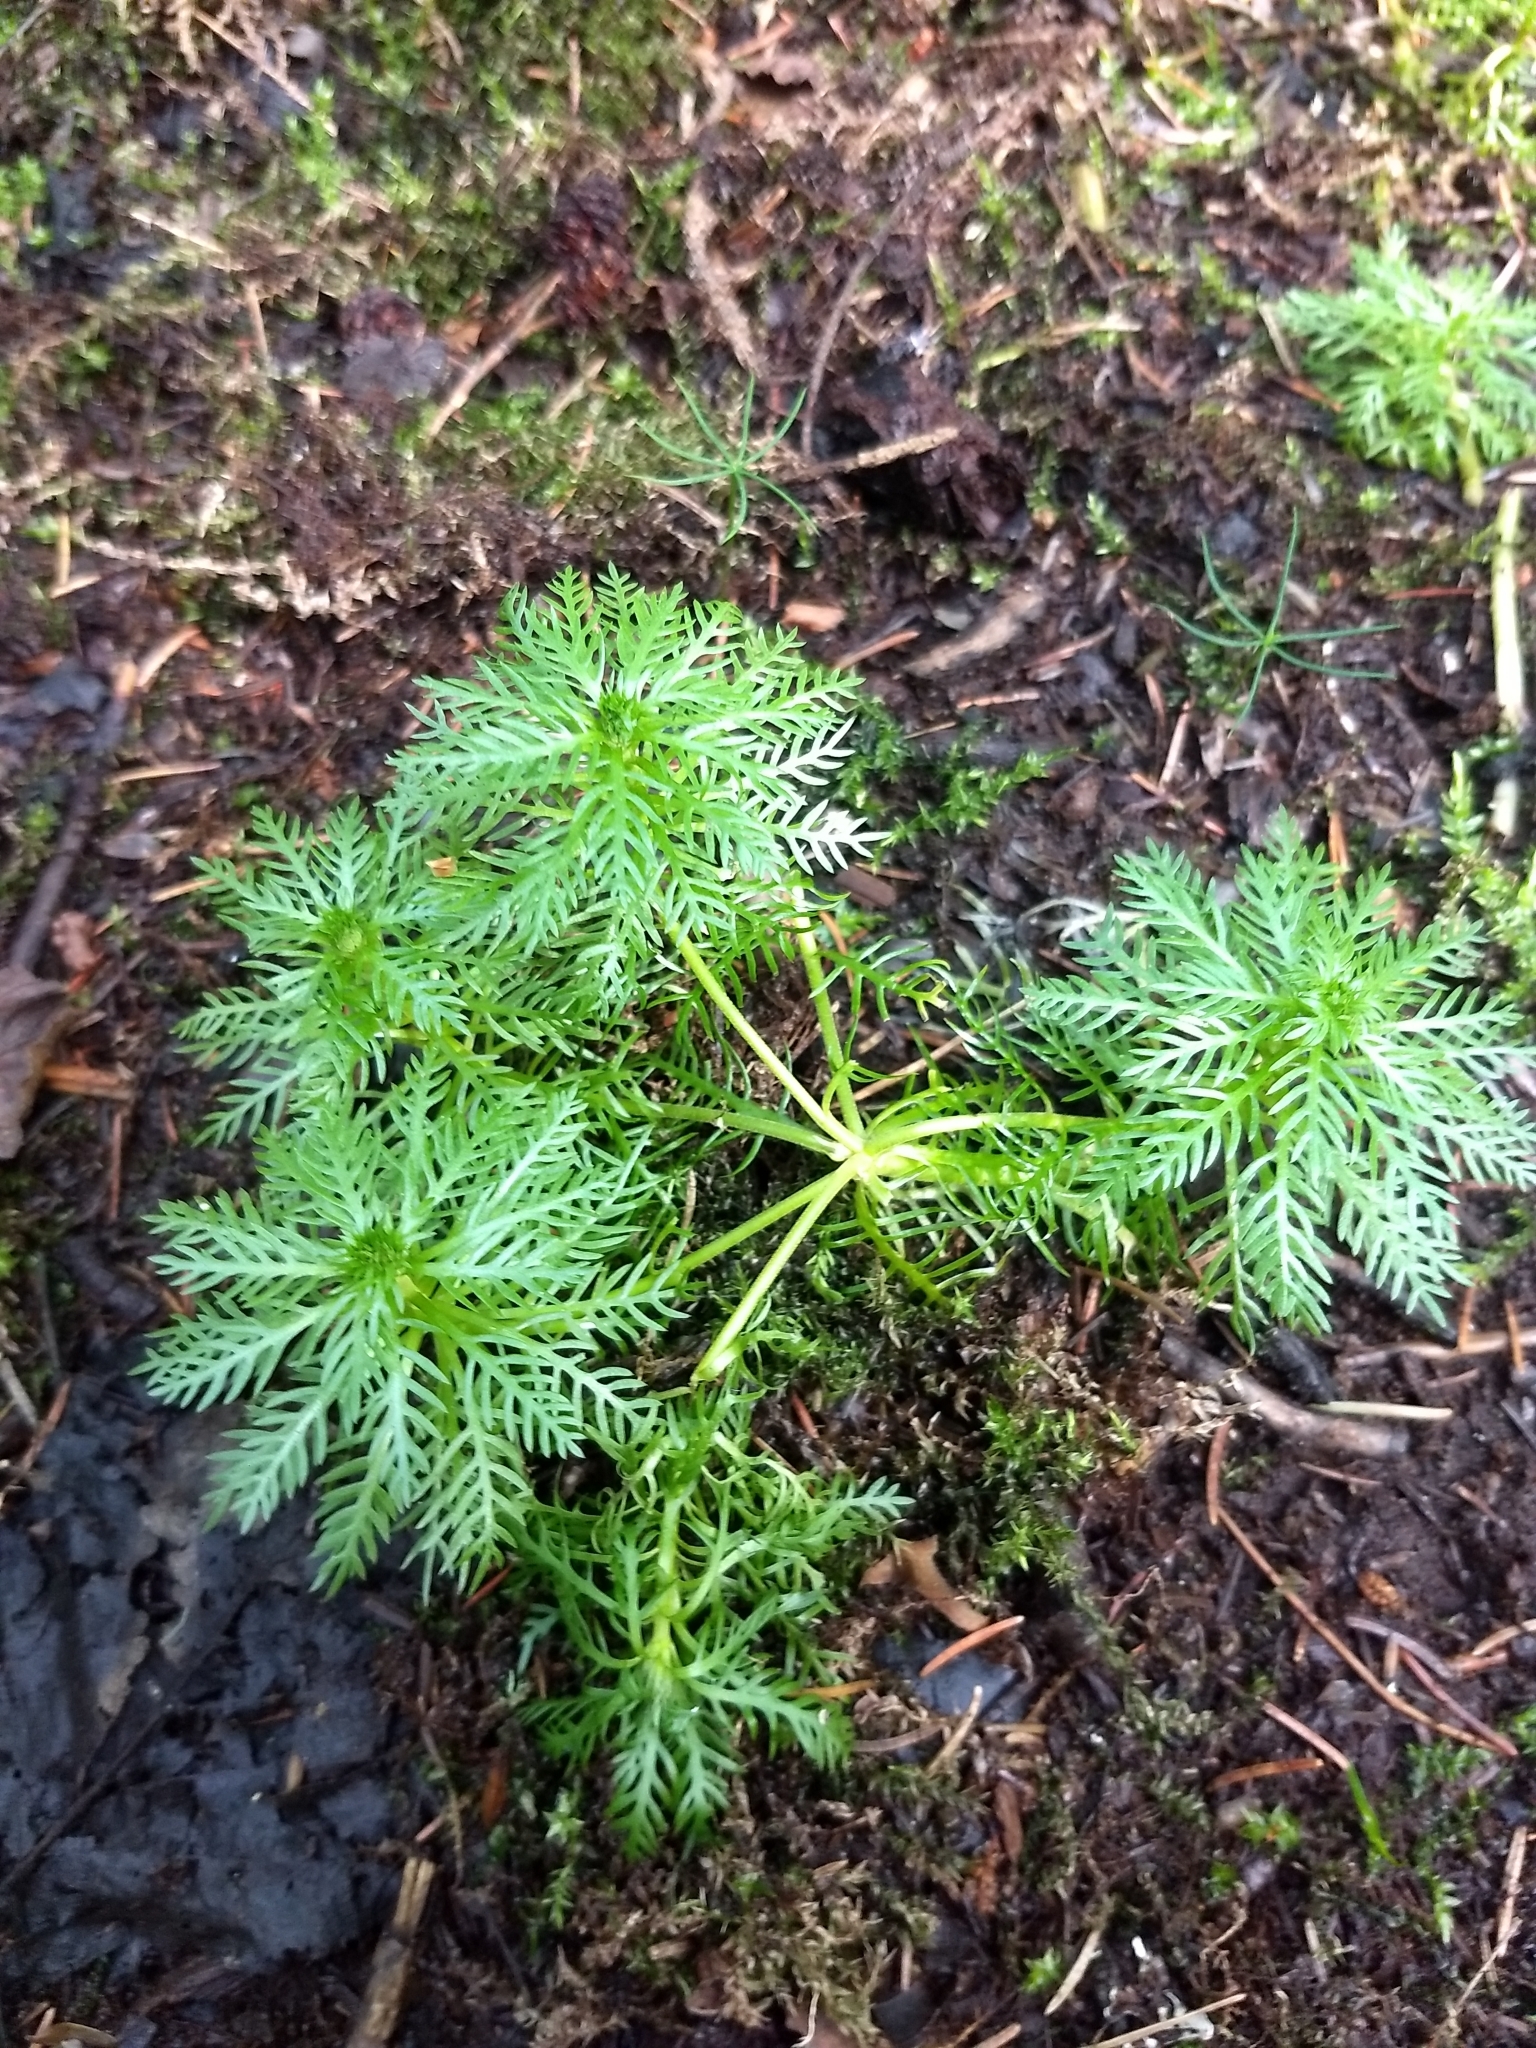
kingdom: Plantae
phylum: Tracheophyta
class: Magnoliopsida
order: Ericales
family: Primulaceae
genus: Hottonia
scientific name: Hottonia palustris
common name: Water-violet
